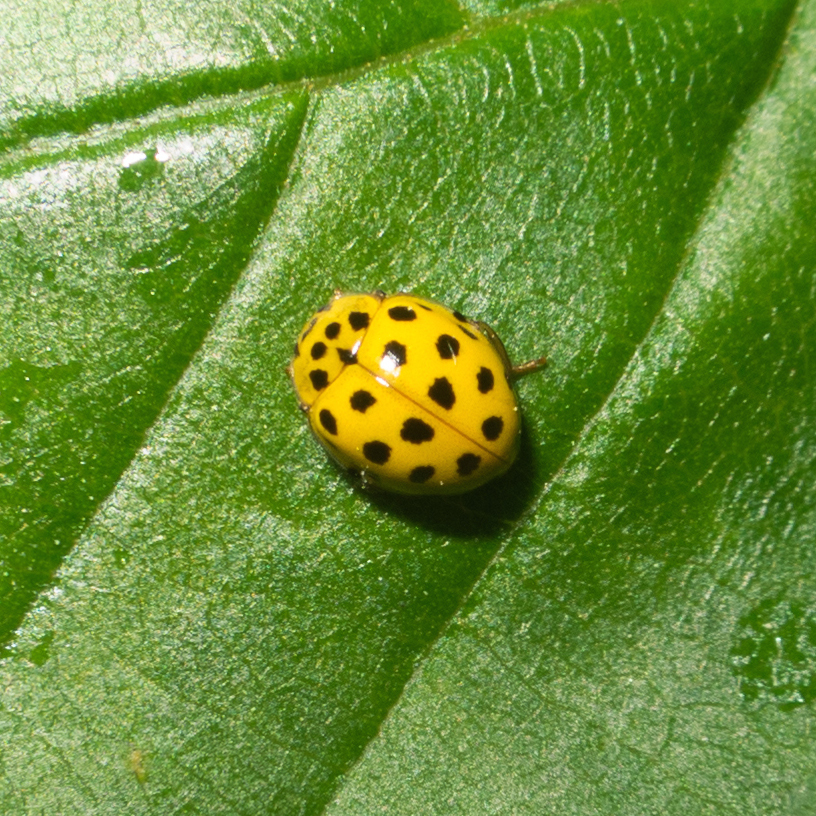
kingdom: Animalia
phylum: Arthropoda
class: Insecta
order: Coleoptera
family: Coccinellidae
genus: Psyllobora
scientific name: Psyllobora vigintiduopunctata
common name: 22-spot ladybird
